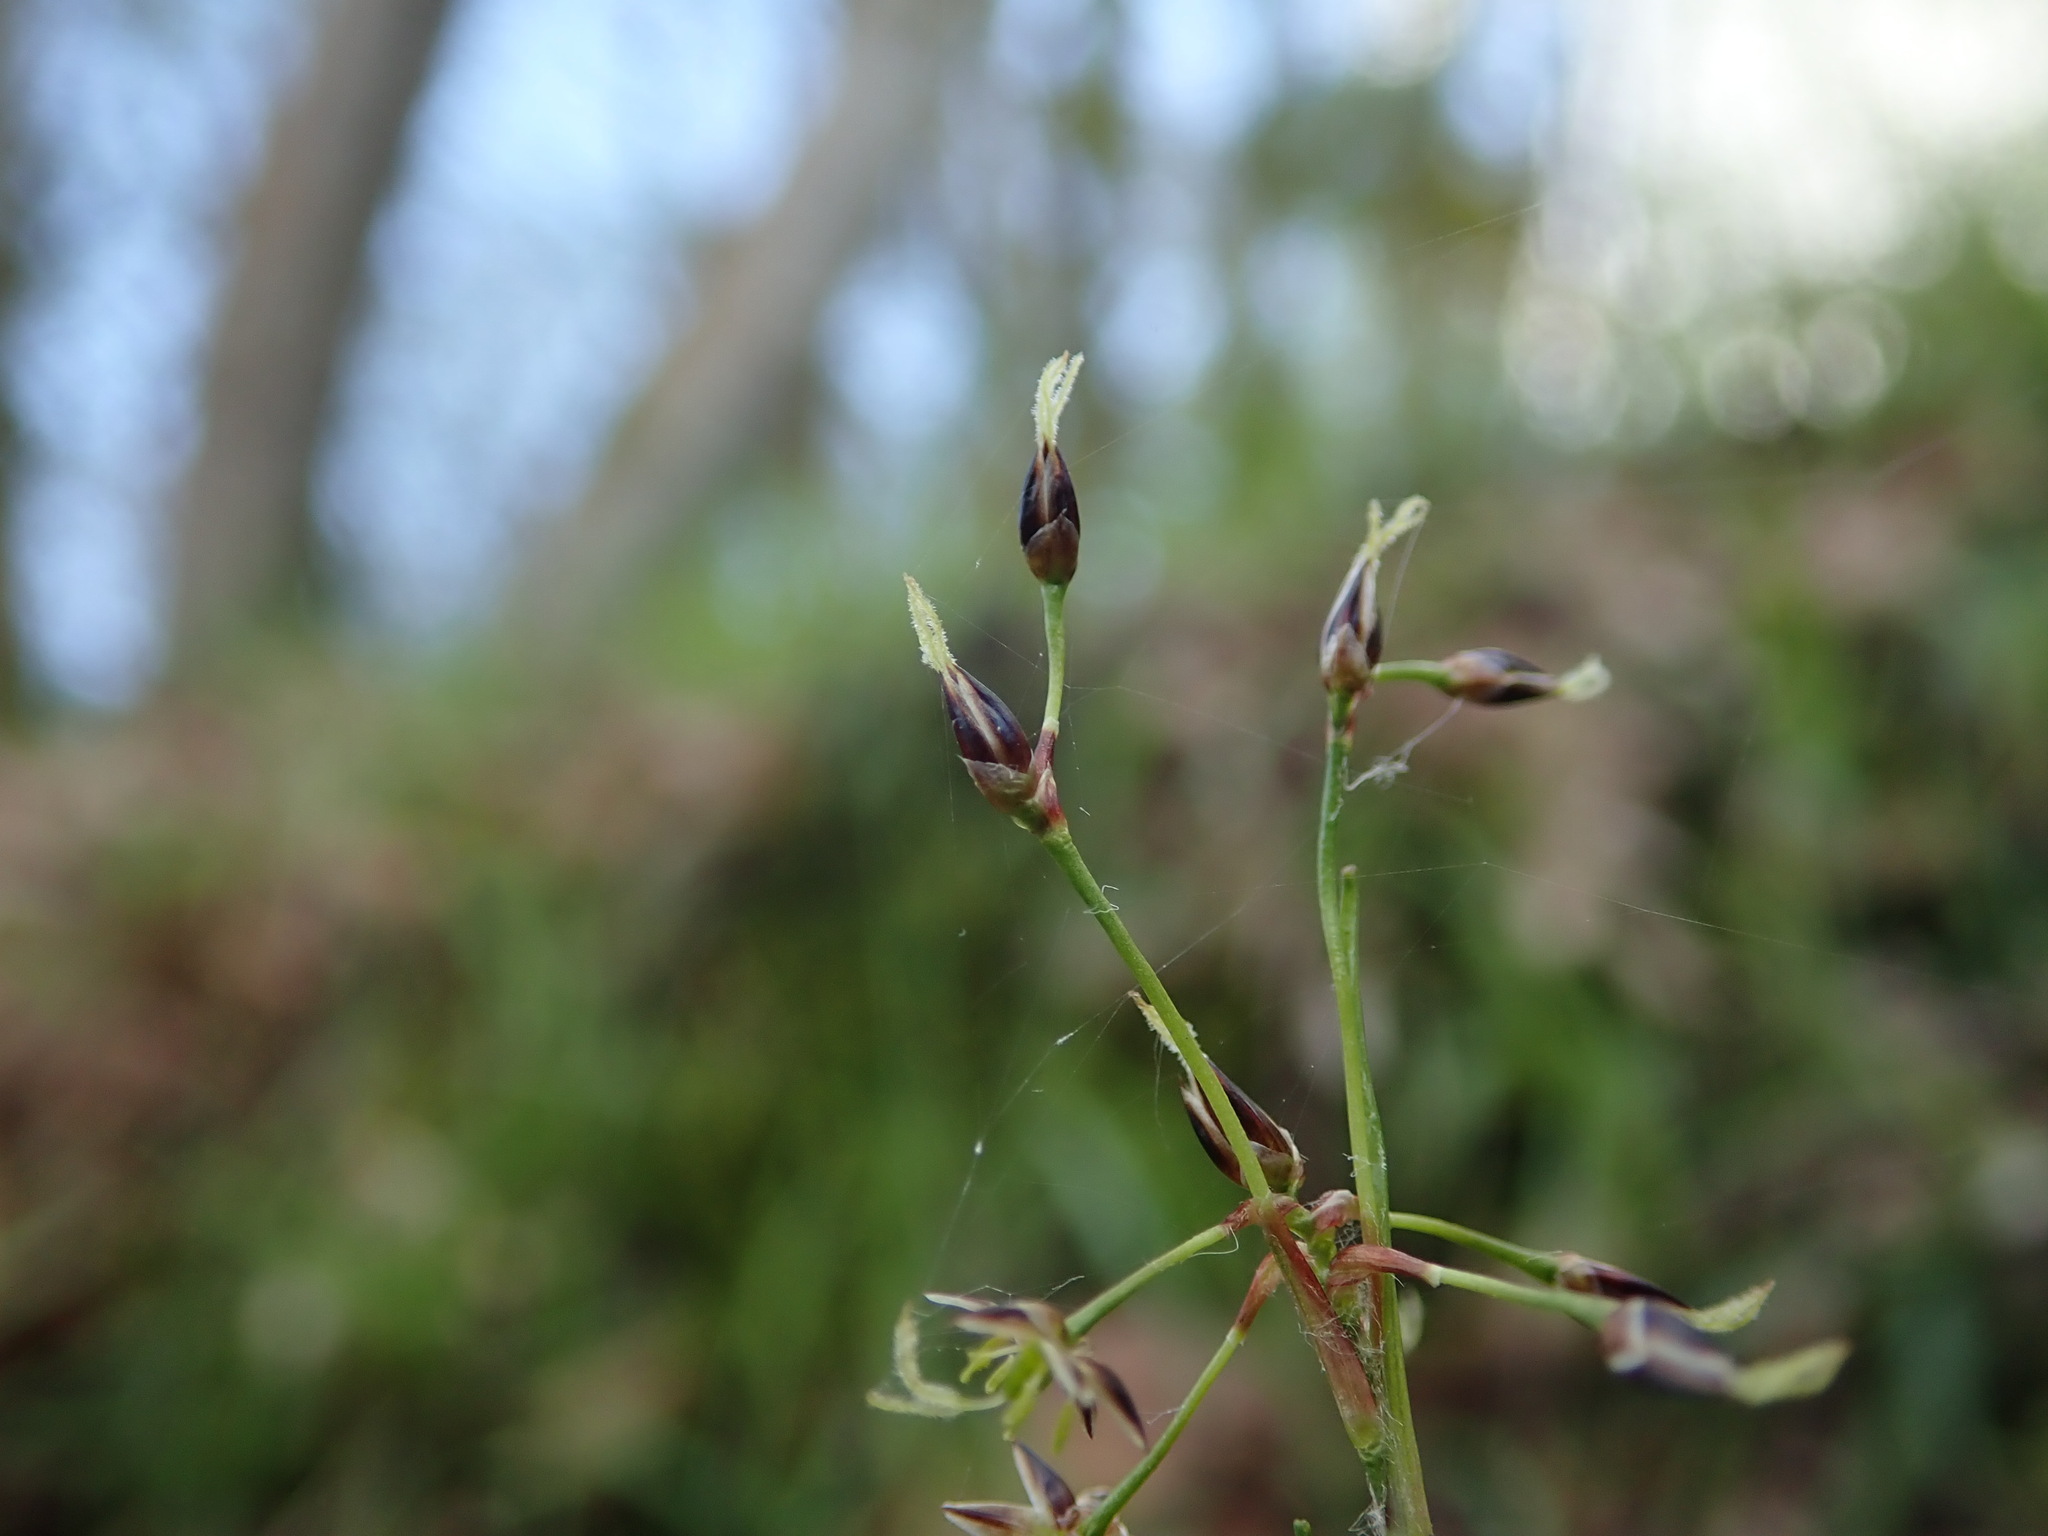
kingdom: Plantae
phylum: Tracheophyta
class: Liliopsida
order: Poales
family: Juncaceae
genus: Luzula
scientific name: Luzula pilosa
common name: Hairy wood-rush
